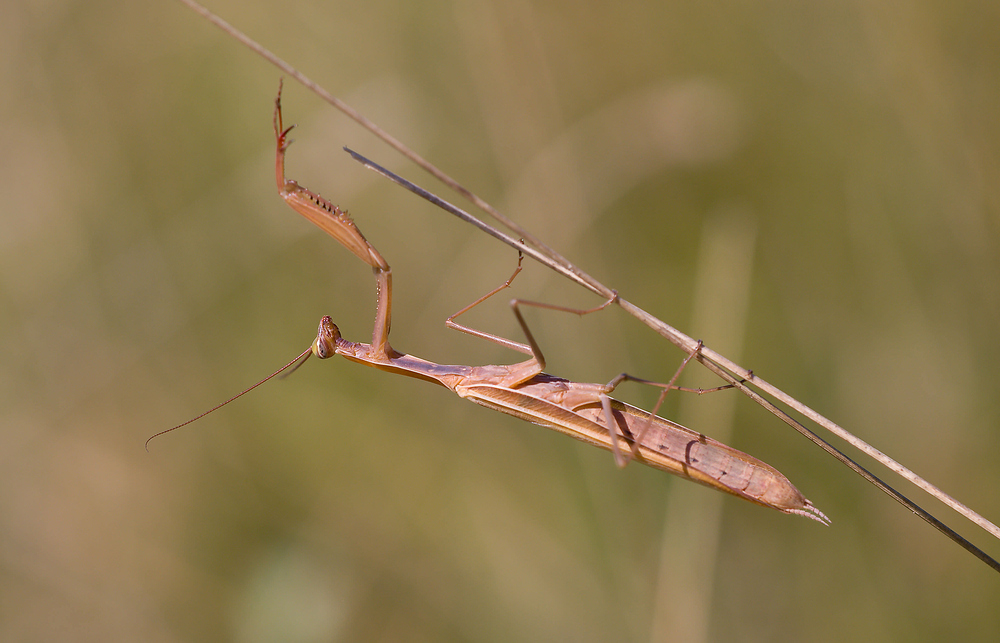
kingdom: Animalia
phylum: Arthropoda
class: Insecta
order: Mantodea
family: Mantidae
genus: Mantis
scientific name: Mantis religiosa
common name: Praying mantis
